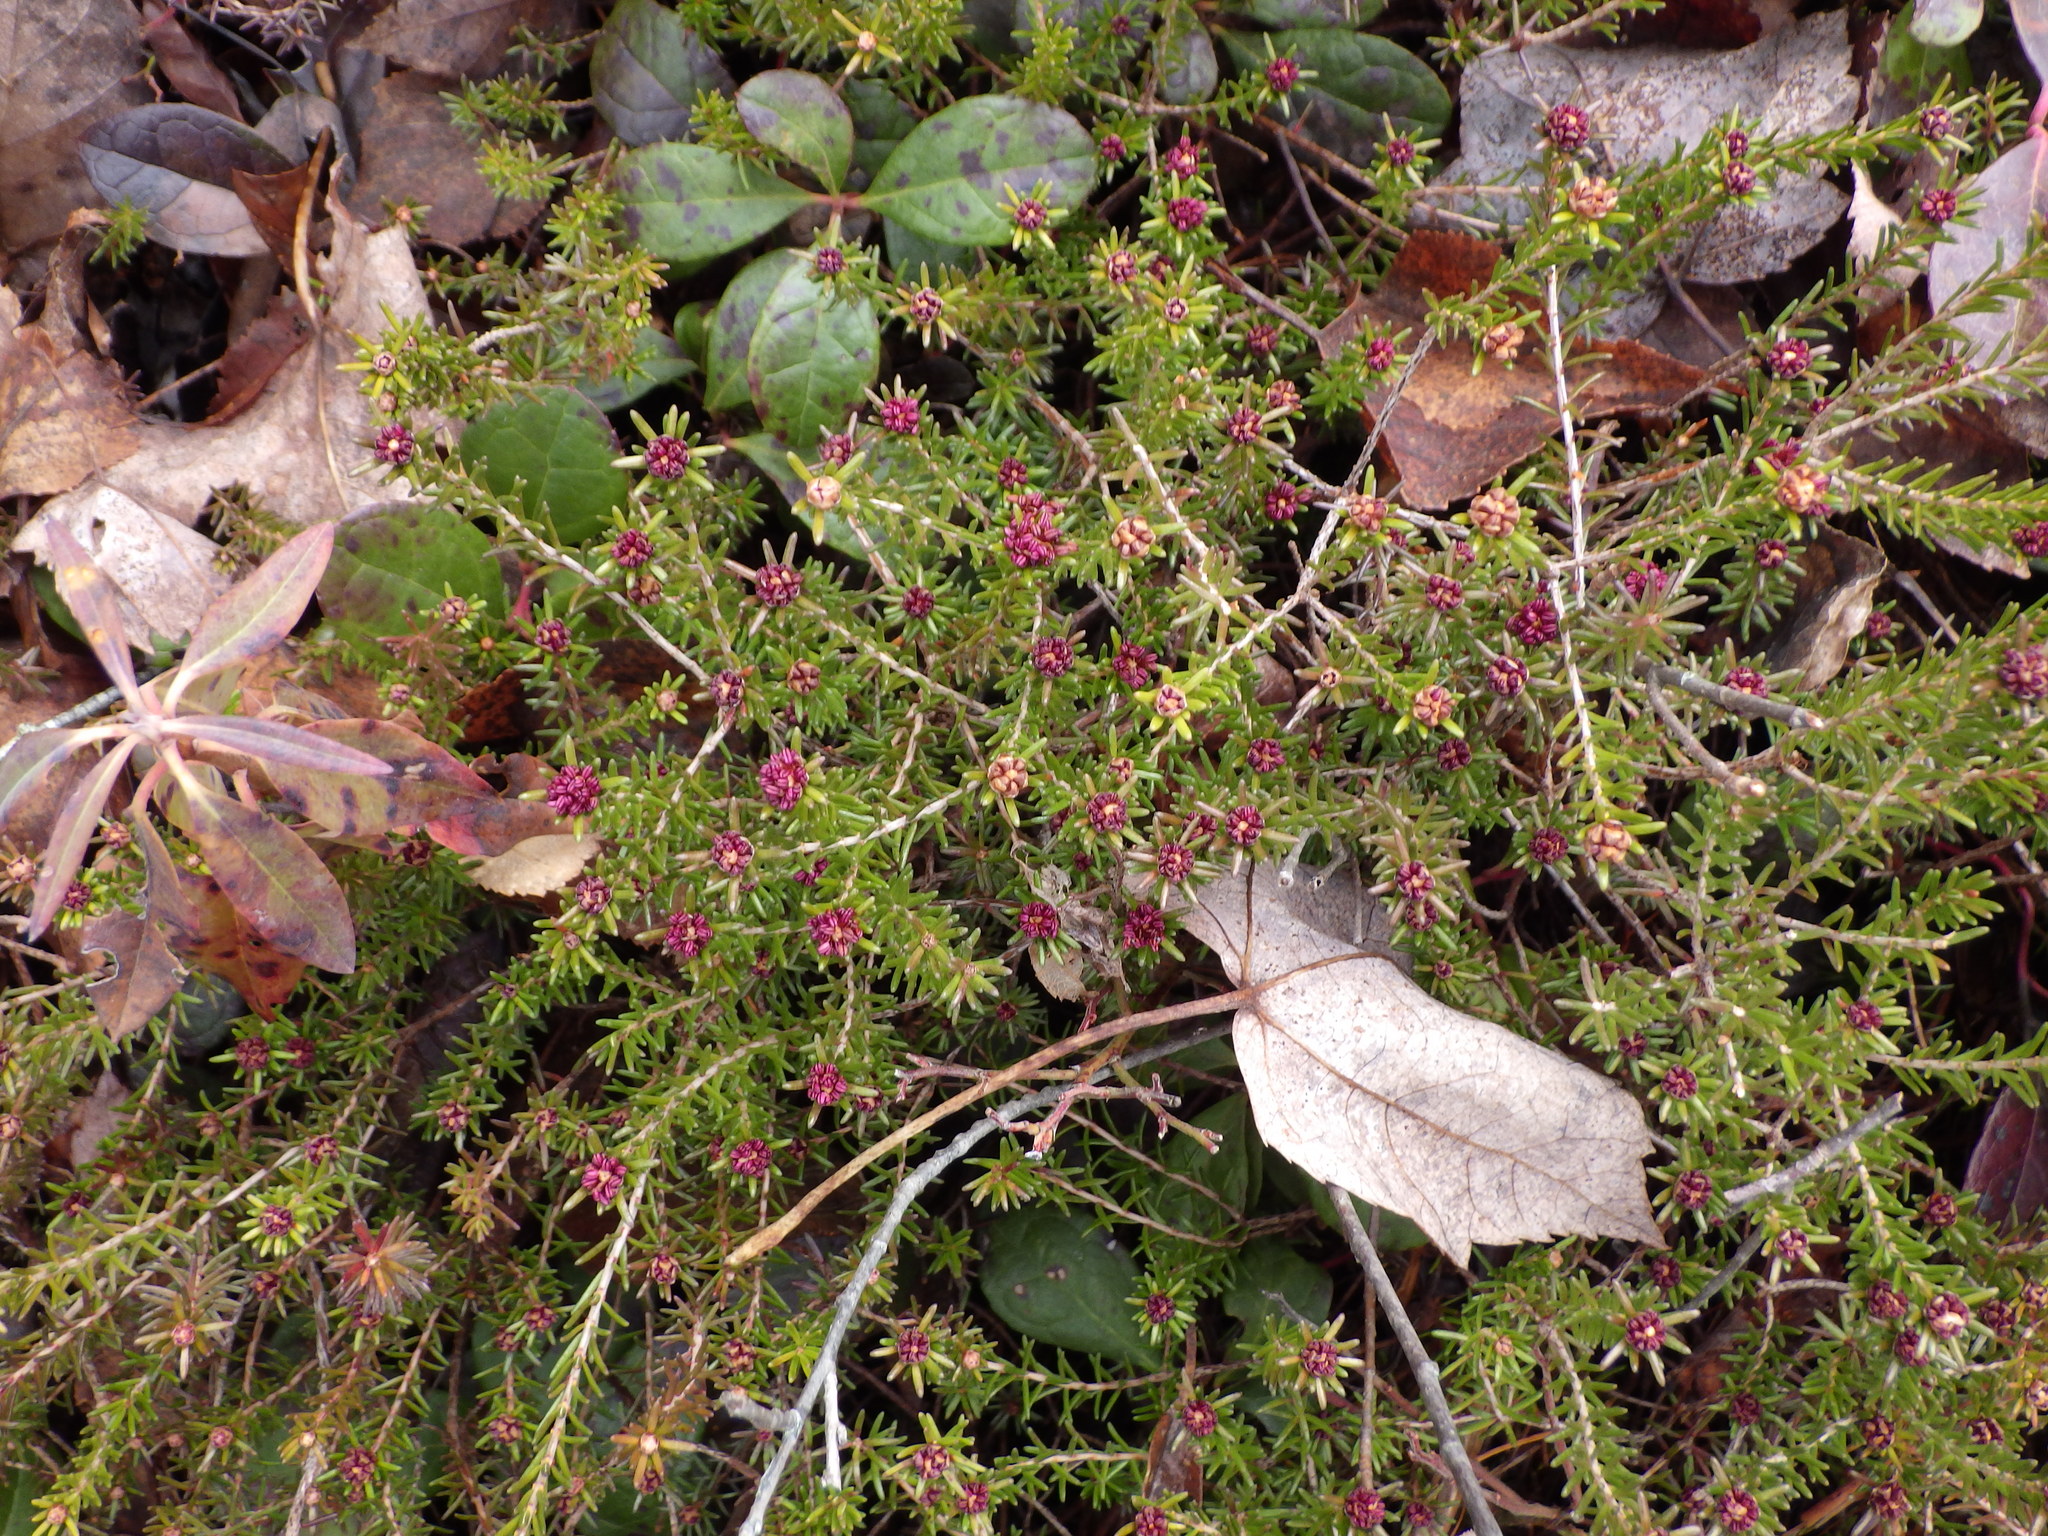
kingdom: Plantae
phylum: Tracheophyta
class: Magnoliopsida
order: Ericales
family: Ericaceae
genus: Corema
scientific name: Corema conradii
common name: Broom-crowberry
